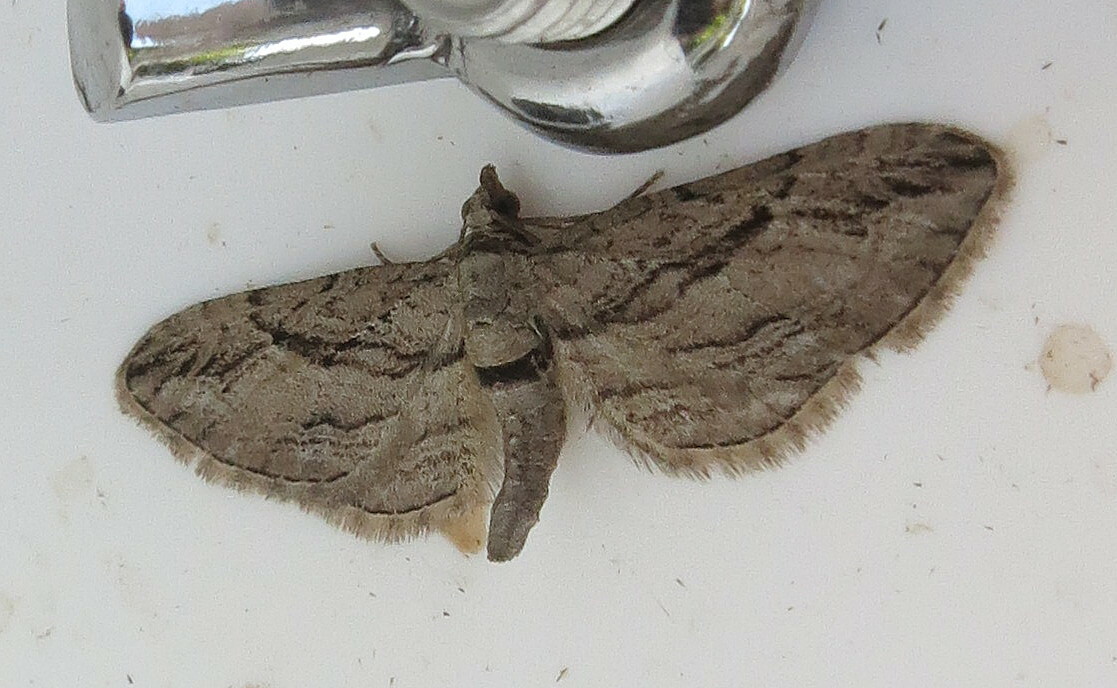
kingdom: Animalia
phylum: Arthropoda
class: Insecta
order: Lepidoptera
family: Geometridae
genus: Eupithecia
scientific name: Eupithecia phoeniceata
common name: Cypress pug
